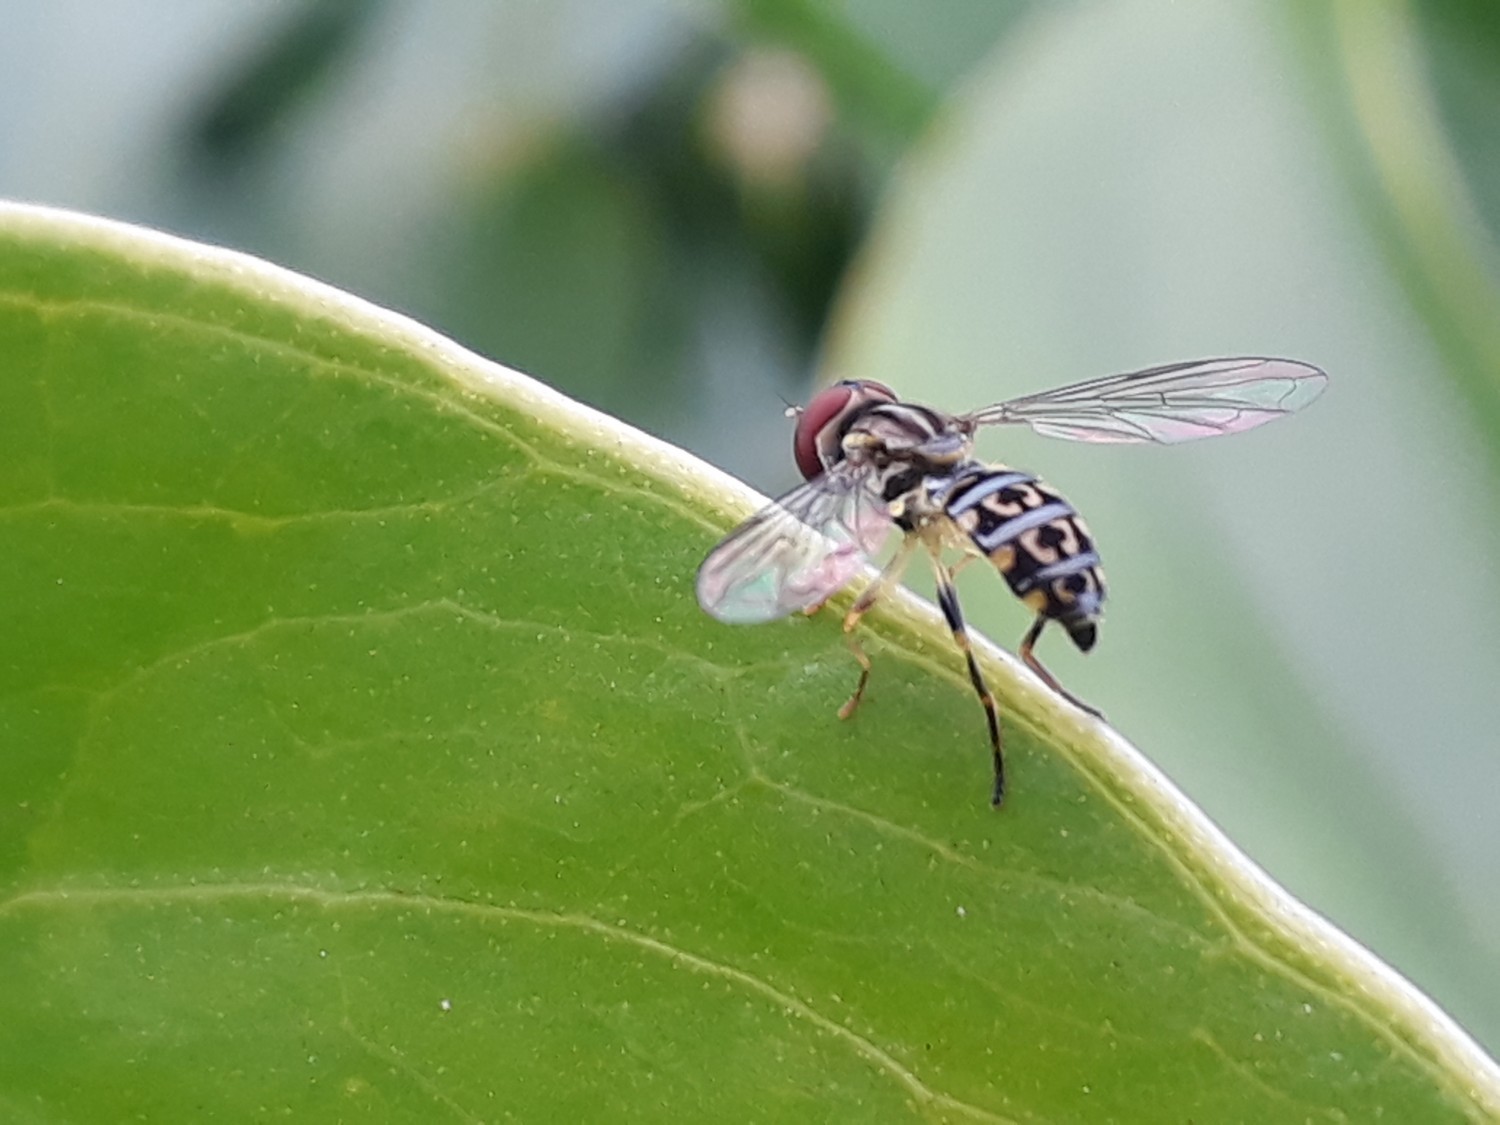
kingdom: Animalia
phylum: Arthropoda
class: Insecta
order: Diptera
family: Syrphidae
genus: Toxomerus
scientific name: Toxomerus virgulatus
